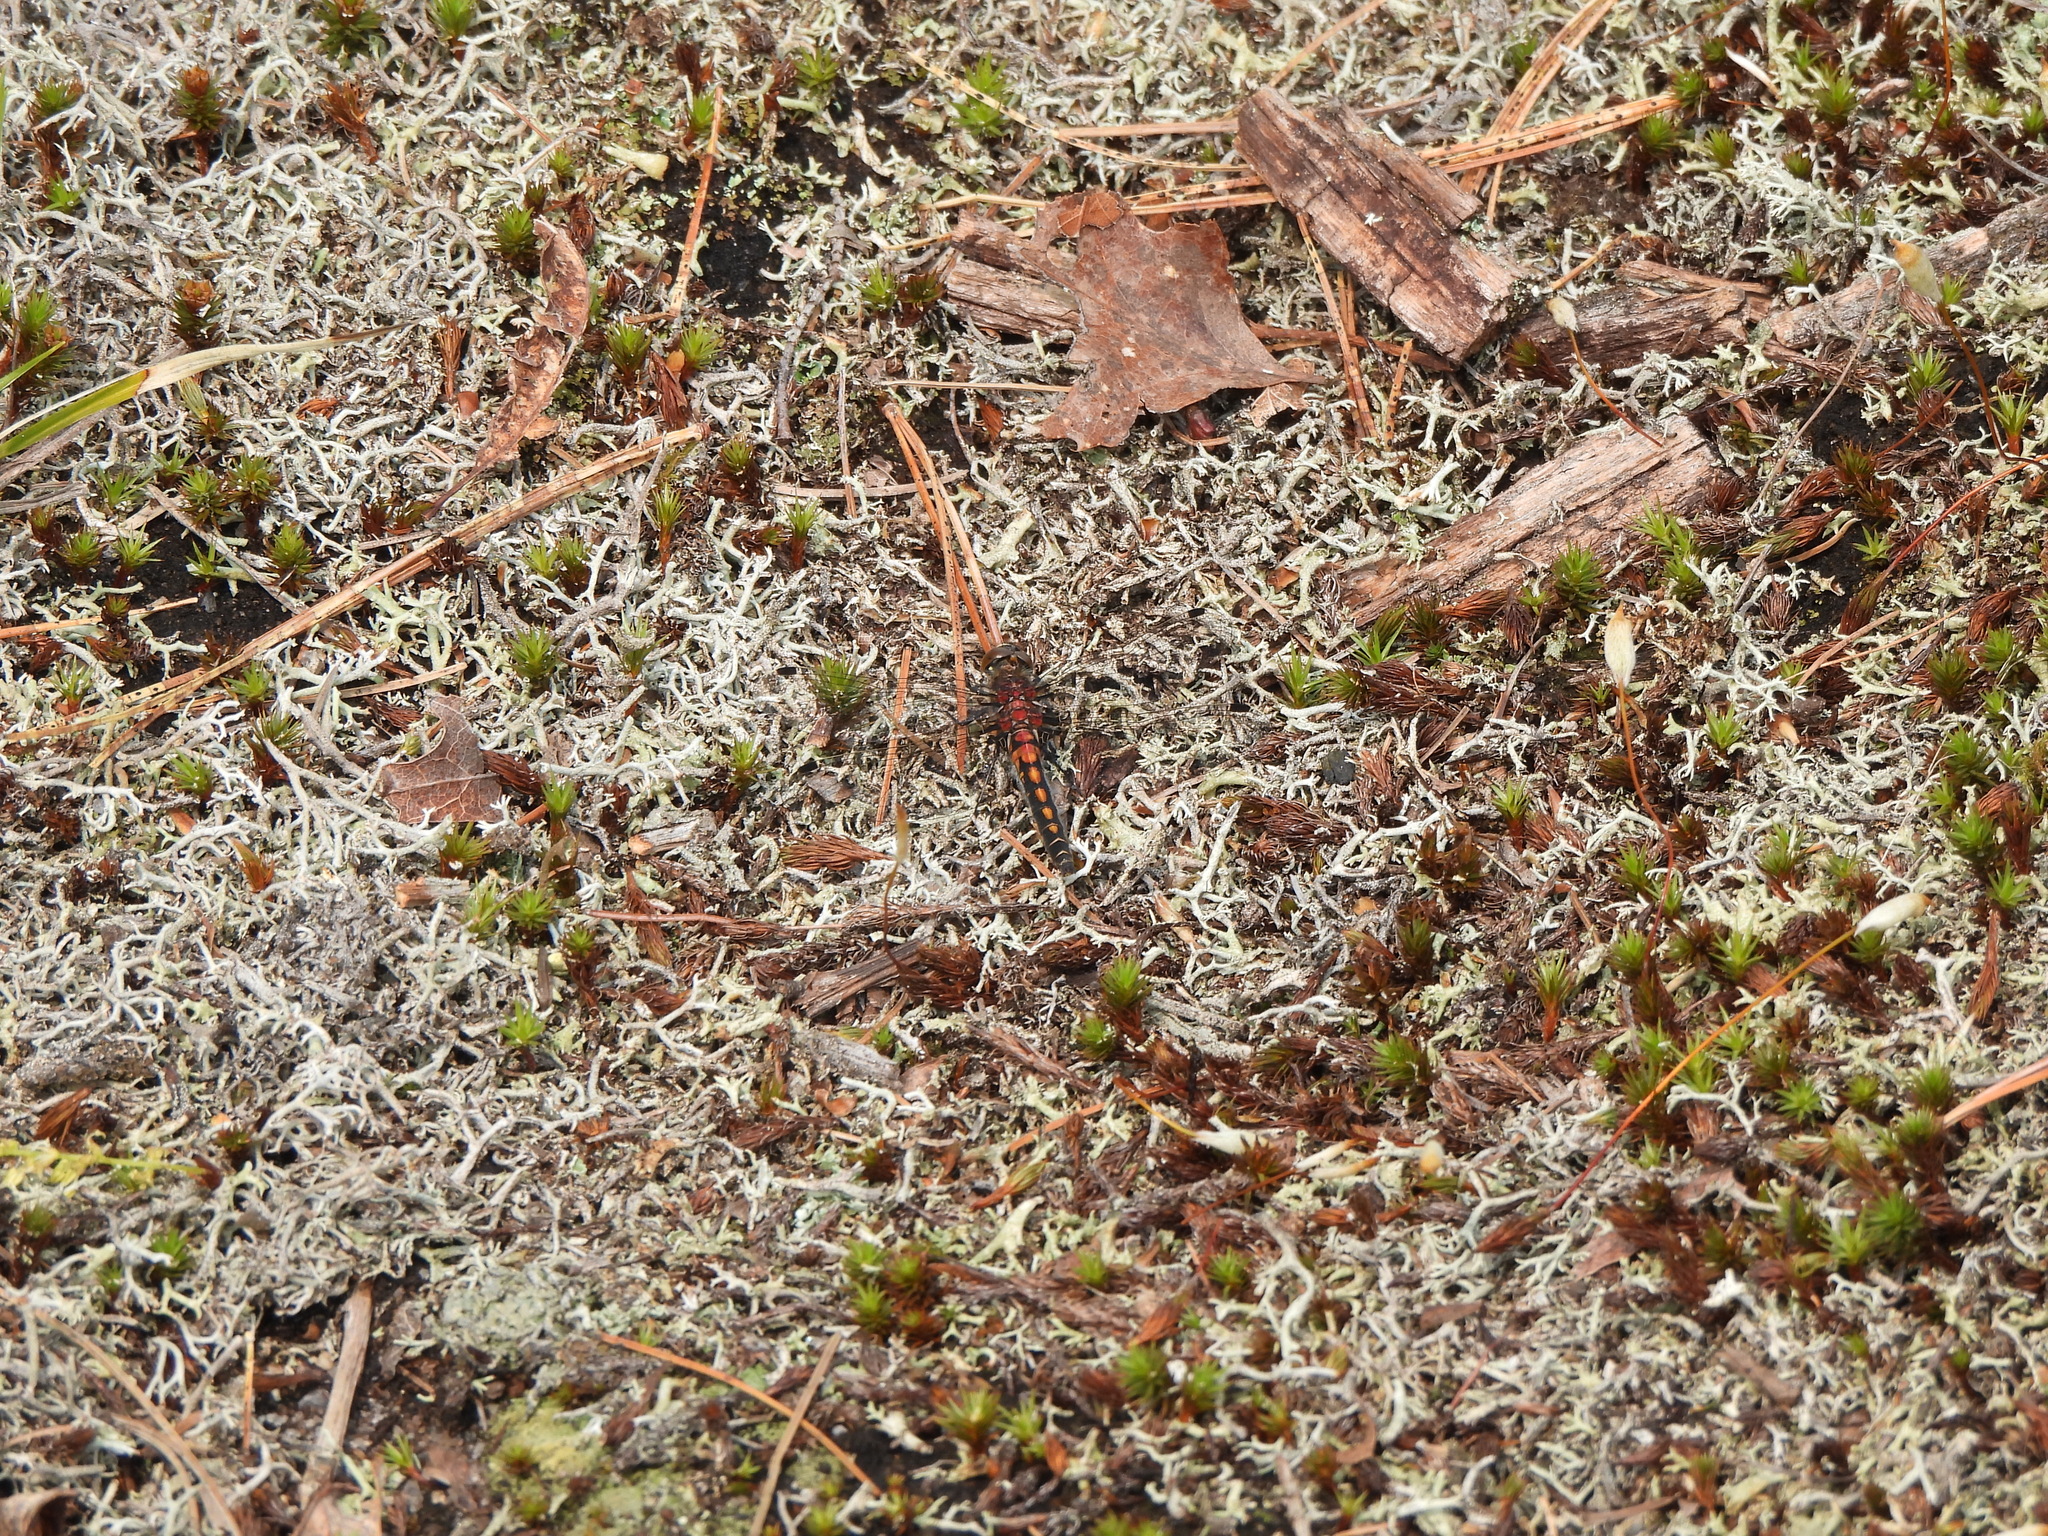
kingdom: Animalia
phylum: Arthropoda
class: Insecta
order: Odonata
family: Libellulidae
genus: Leucorrhinia
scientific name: Leucorrhinia hudsonica
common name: Hudsonian whiteface
